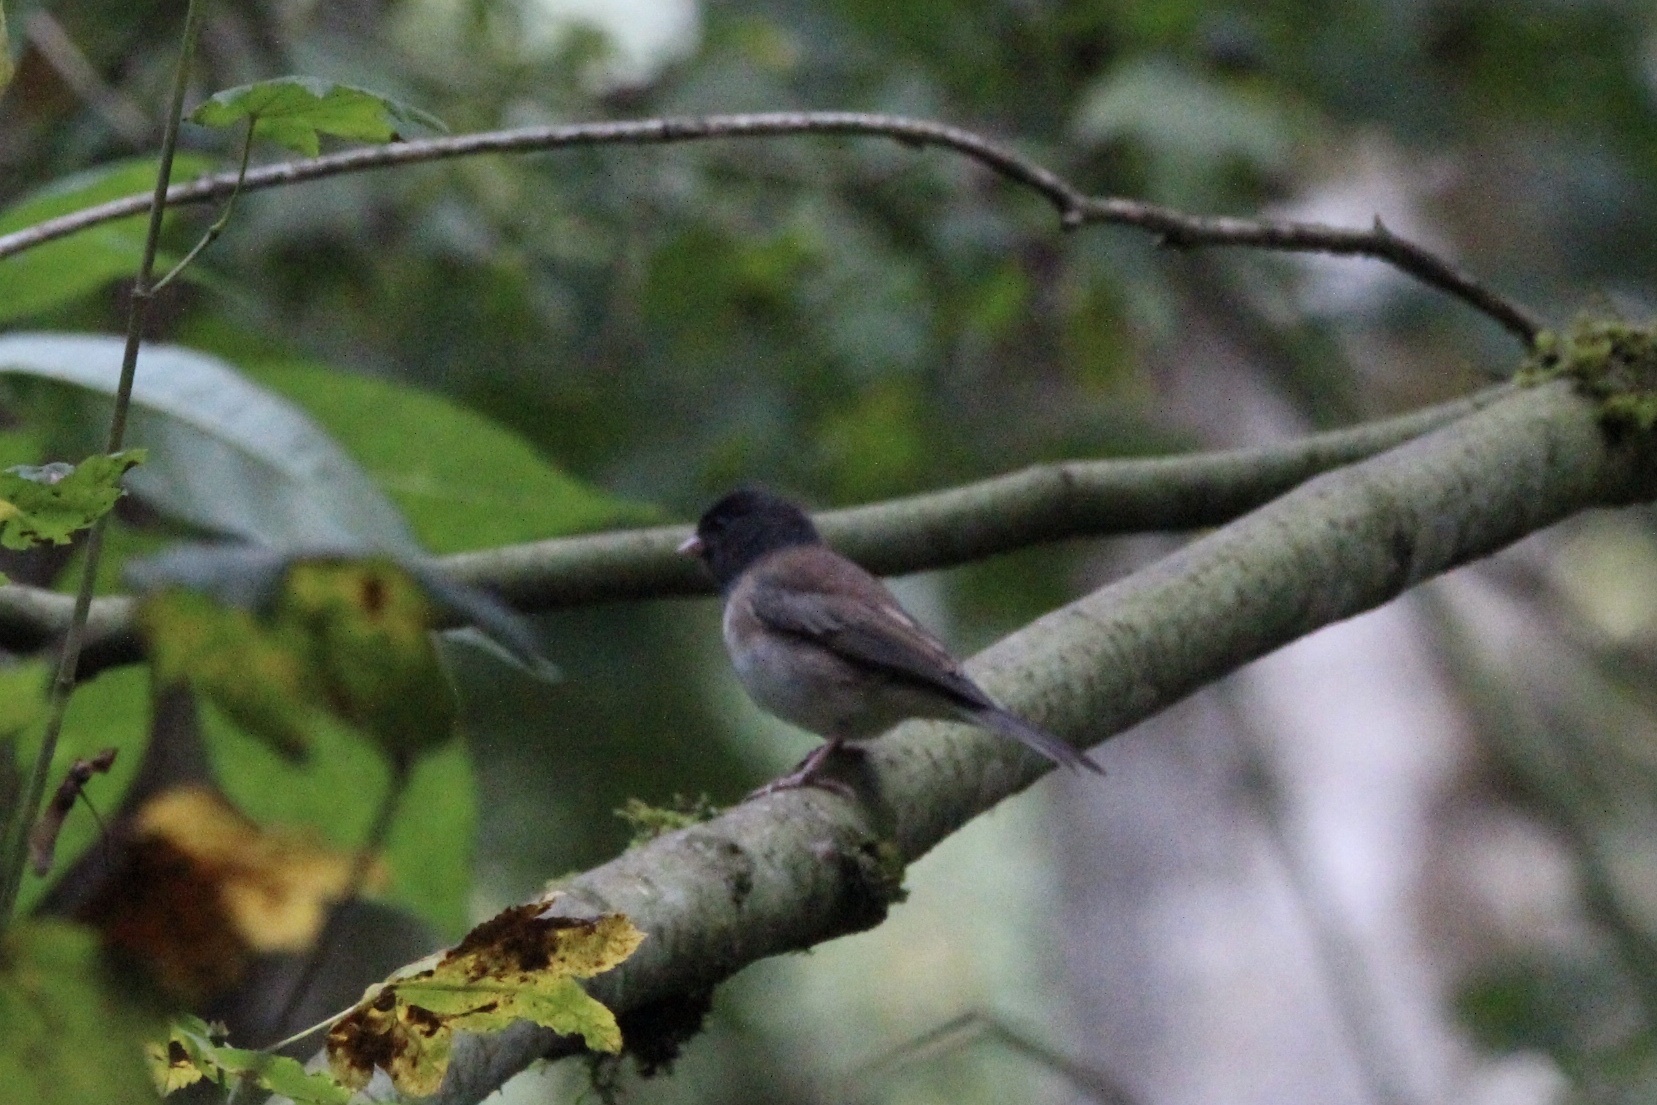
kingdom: Animalia
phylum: Chordata
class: Aves
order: Passeriformes
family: Passerellidae
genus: Junco
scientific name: Junco hyemalis
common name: Dark-eyed junco
